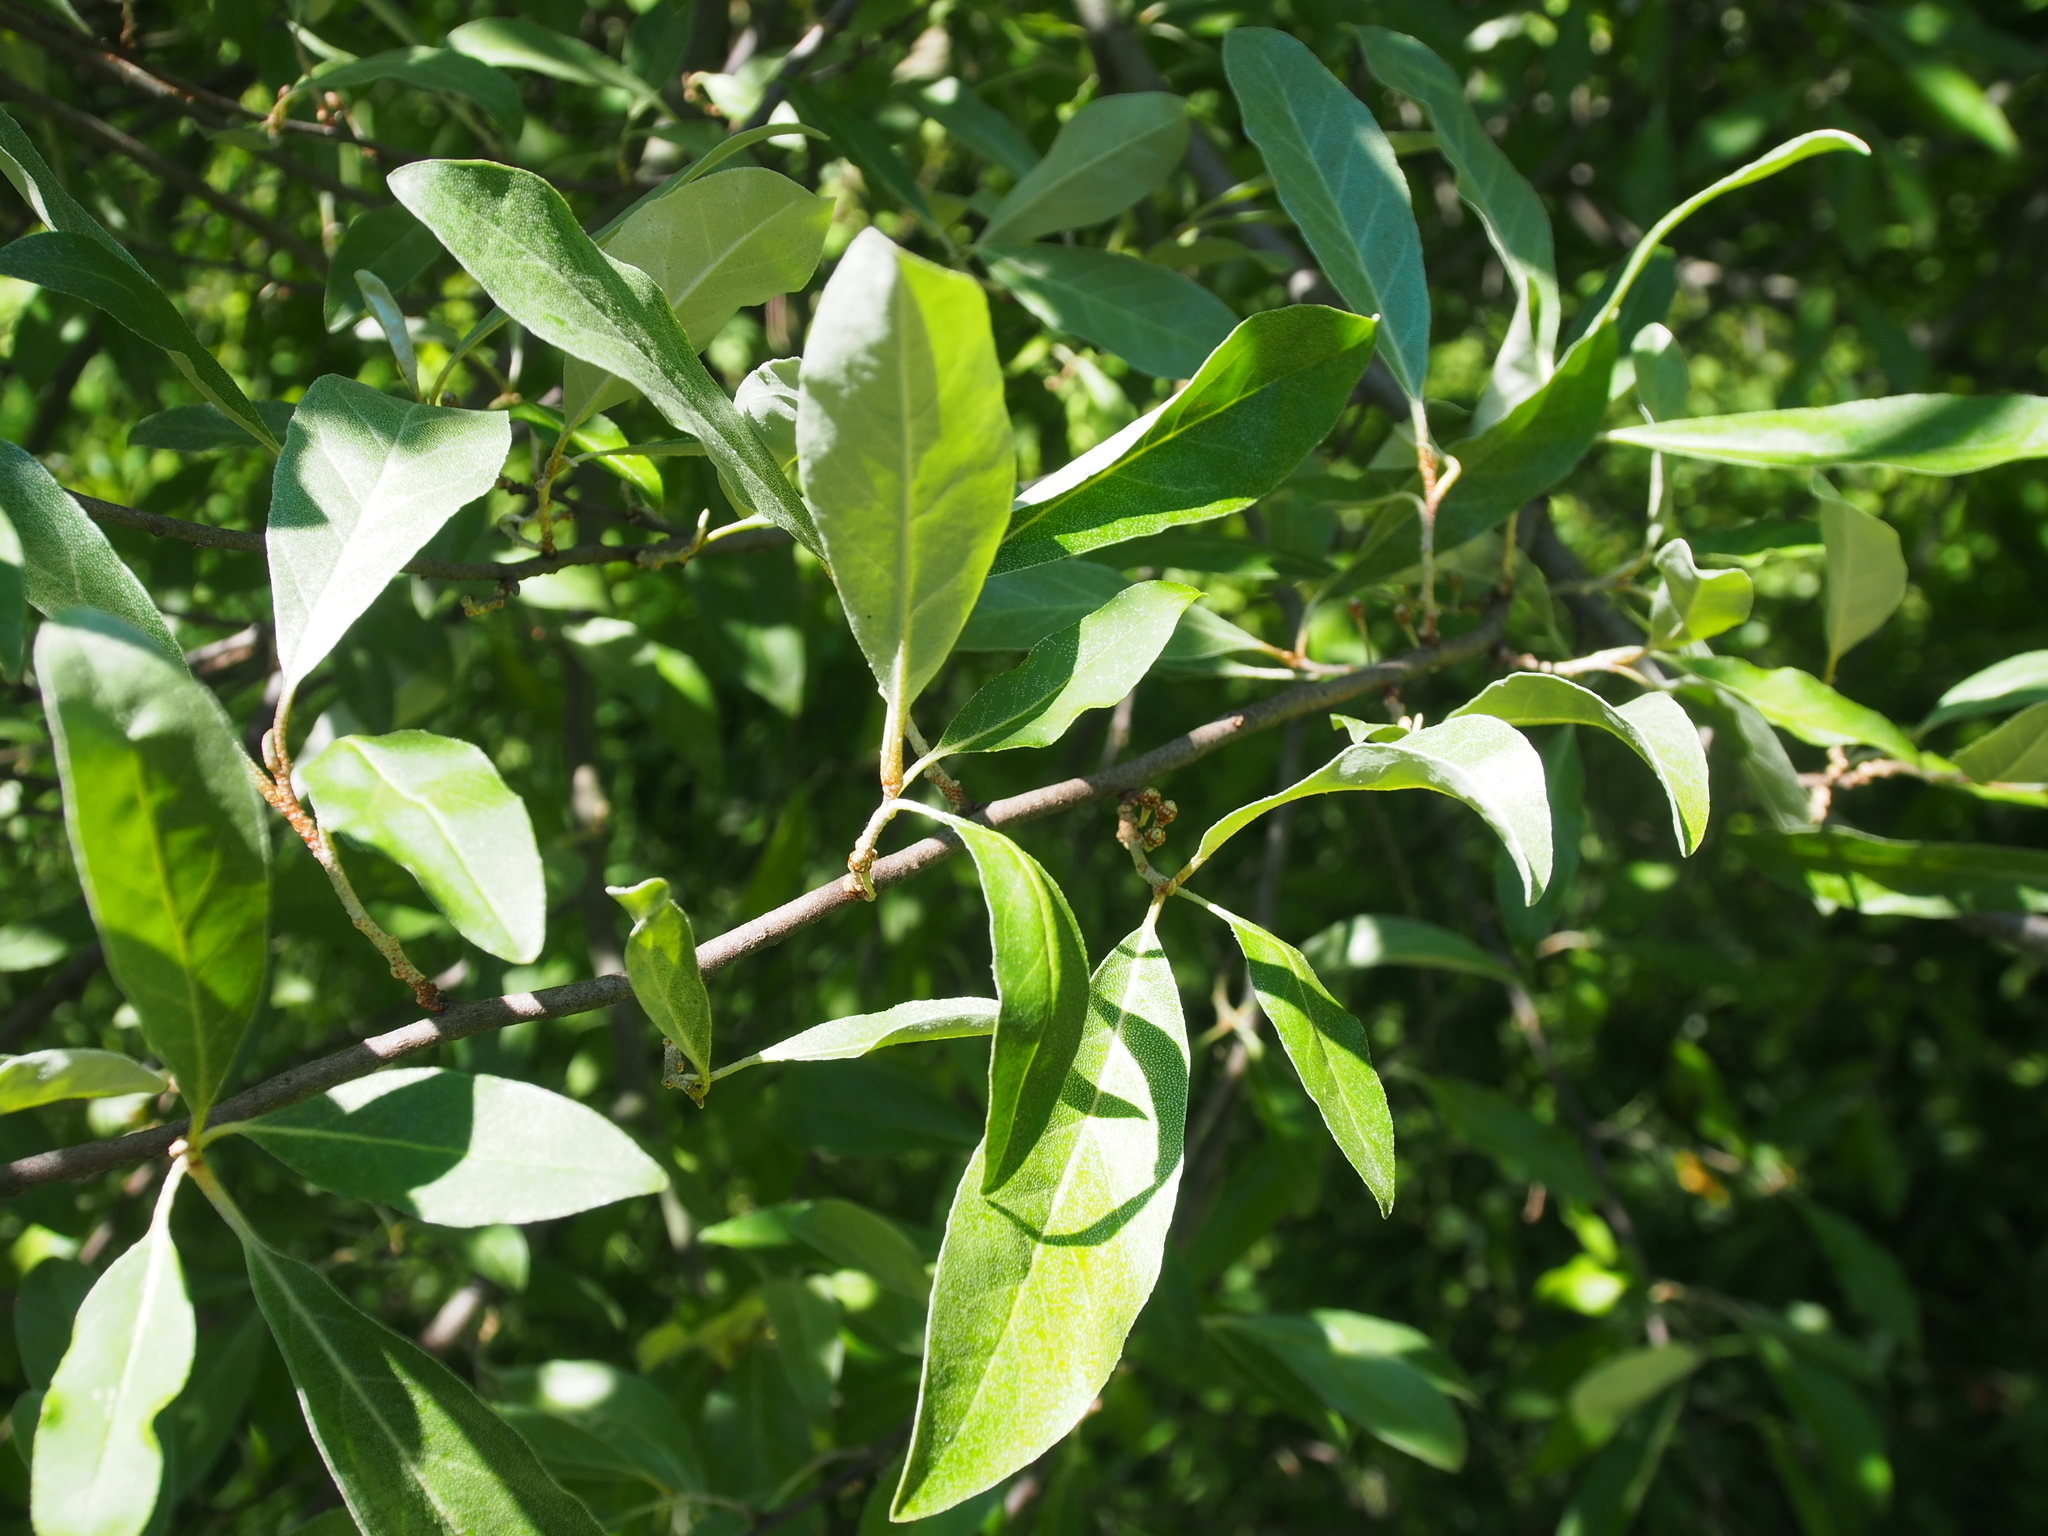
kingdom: Plantae
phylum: Tracheophyta
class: Magnoliopsida
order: Rosales
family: Elaeagnaceae
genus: Elaeagnus
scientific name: Elaeagnus umbellata
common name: Autumn olive
